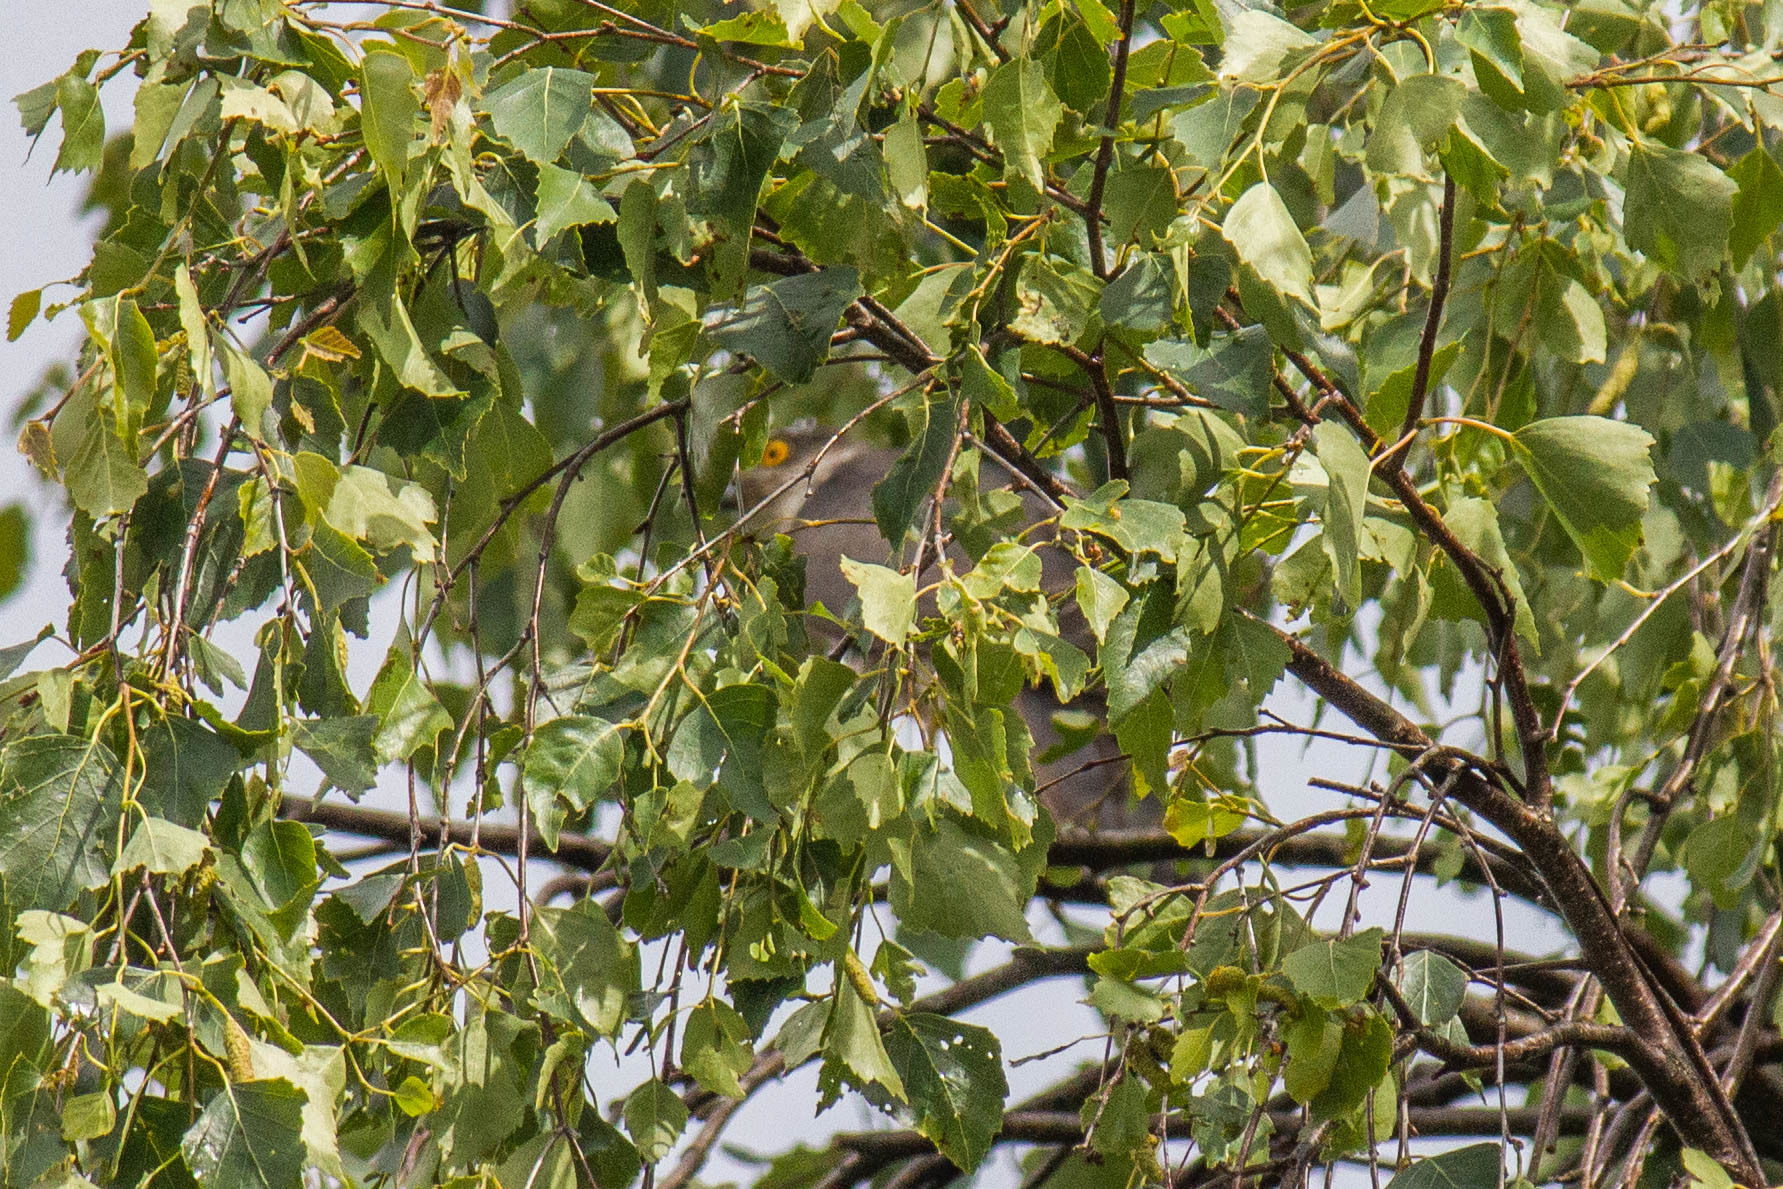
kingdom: Animalia
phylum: Chordata
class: Aves
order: Accipitriformes
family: Accipitridae
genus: Accipiter
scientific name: Accipiter nisus
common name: Eurasian sparrowhawk
